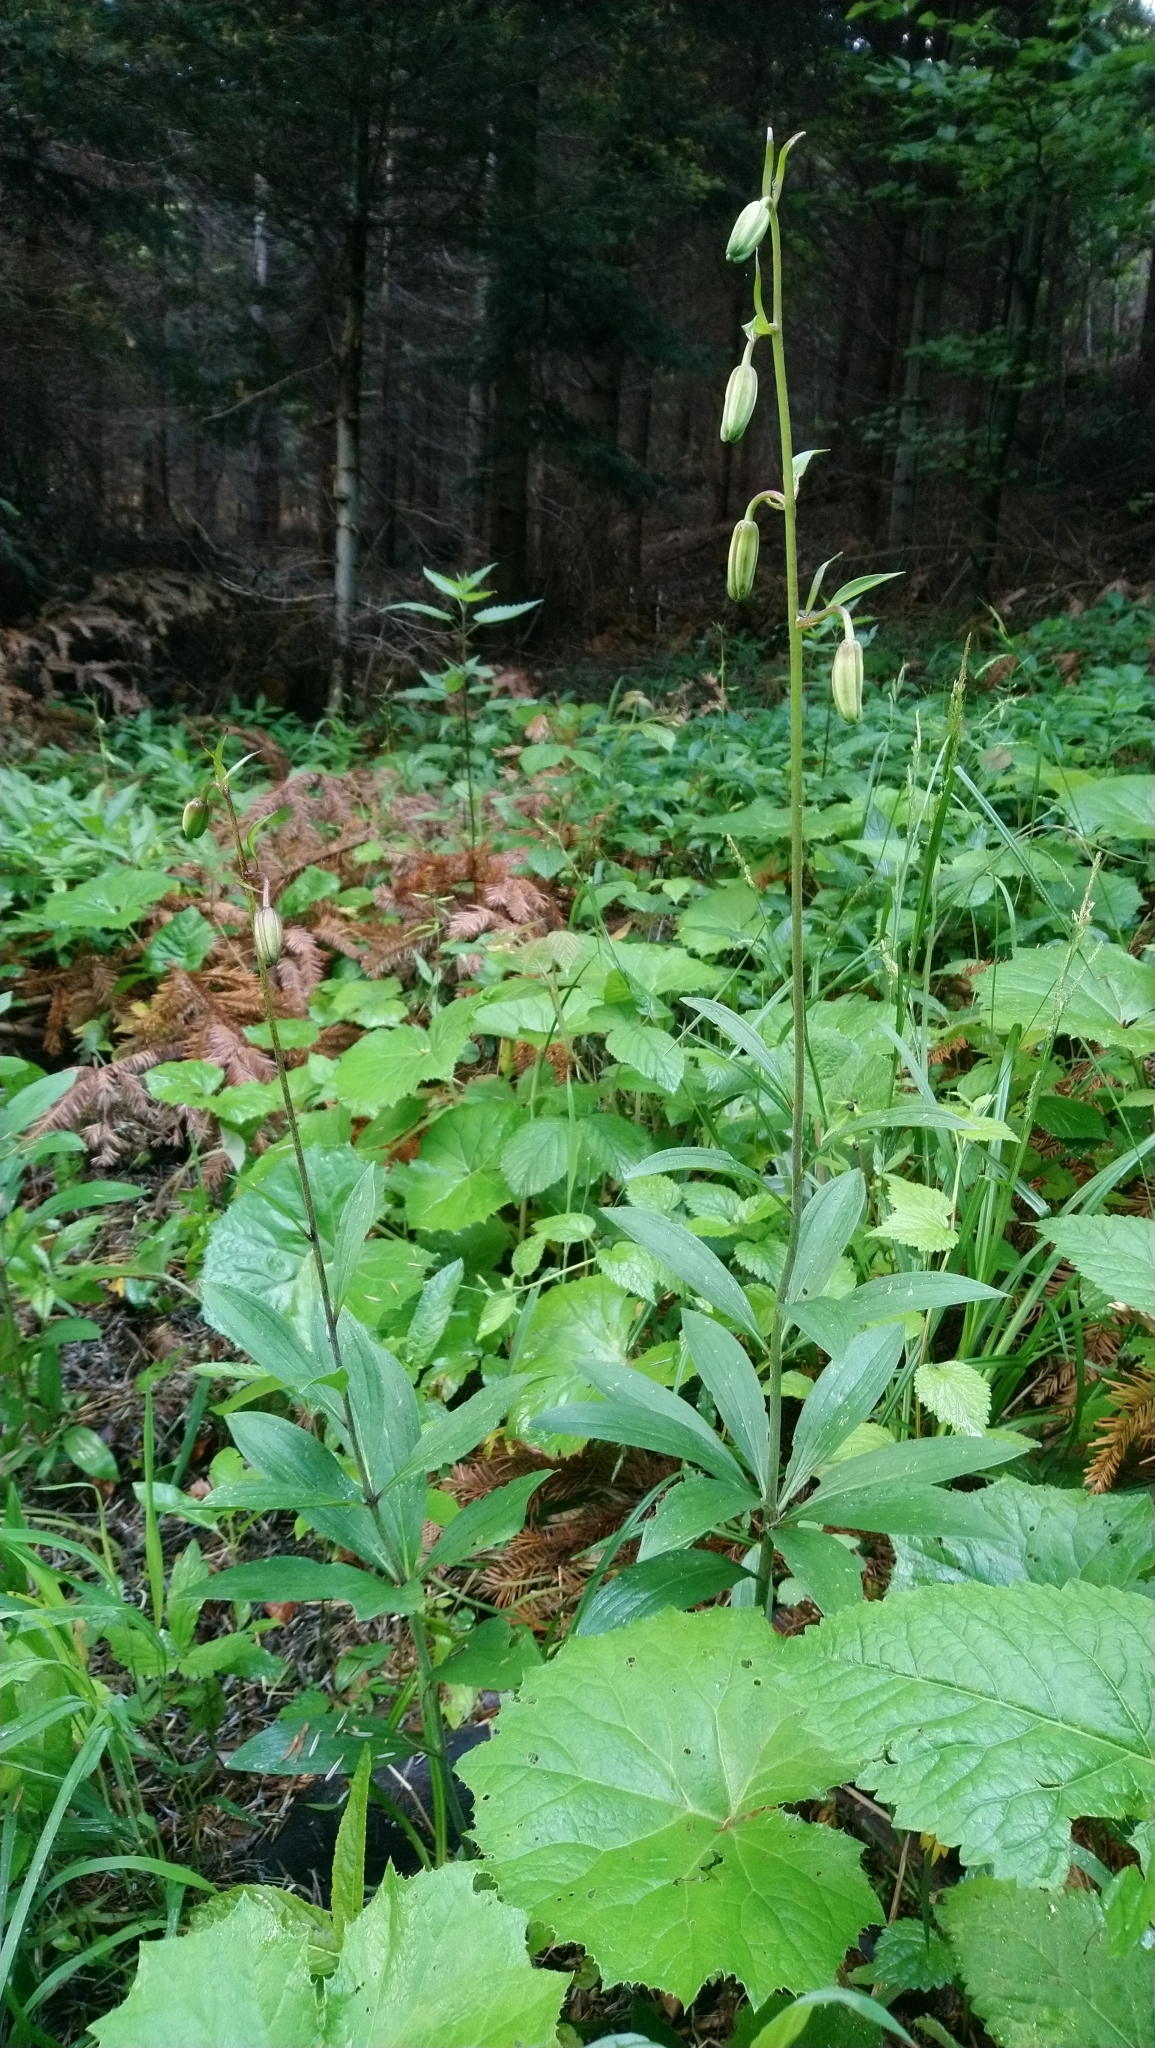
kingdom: Plantae
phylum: Tracheophyta
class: Liliopsida
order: Liliales
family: Liliaceae
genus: Lilium
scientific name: Lilium martagon
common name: Martagon lily
